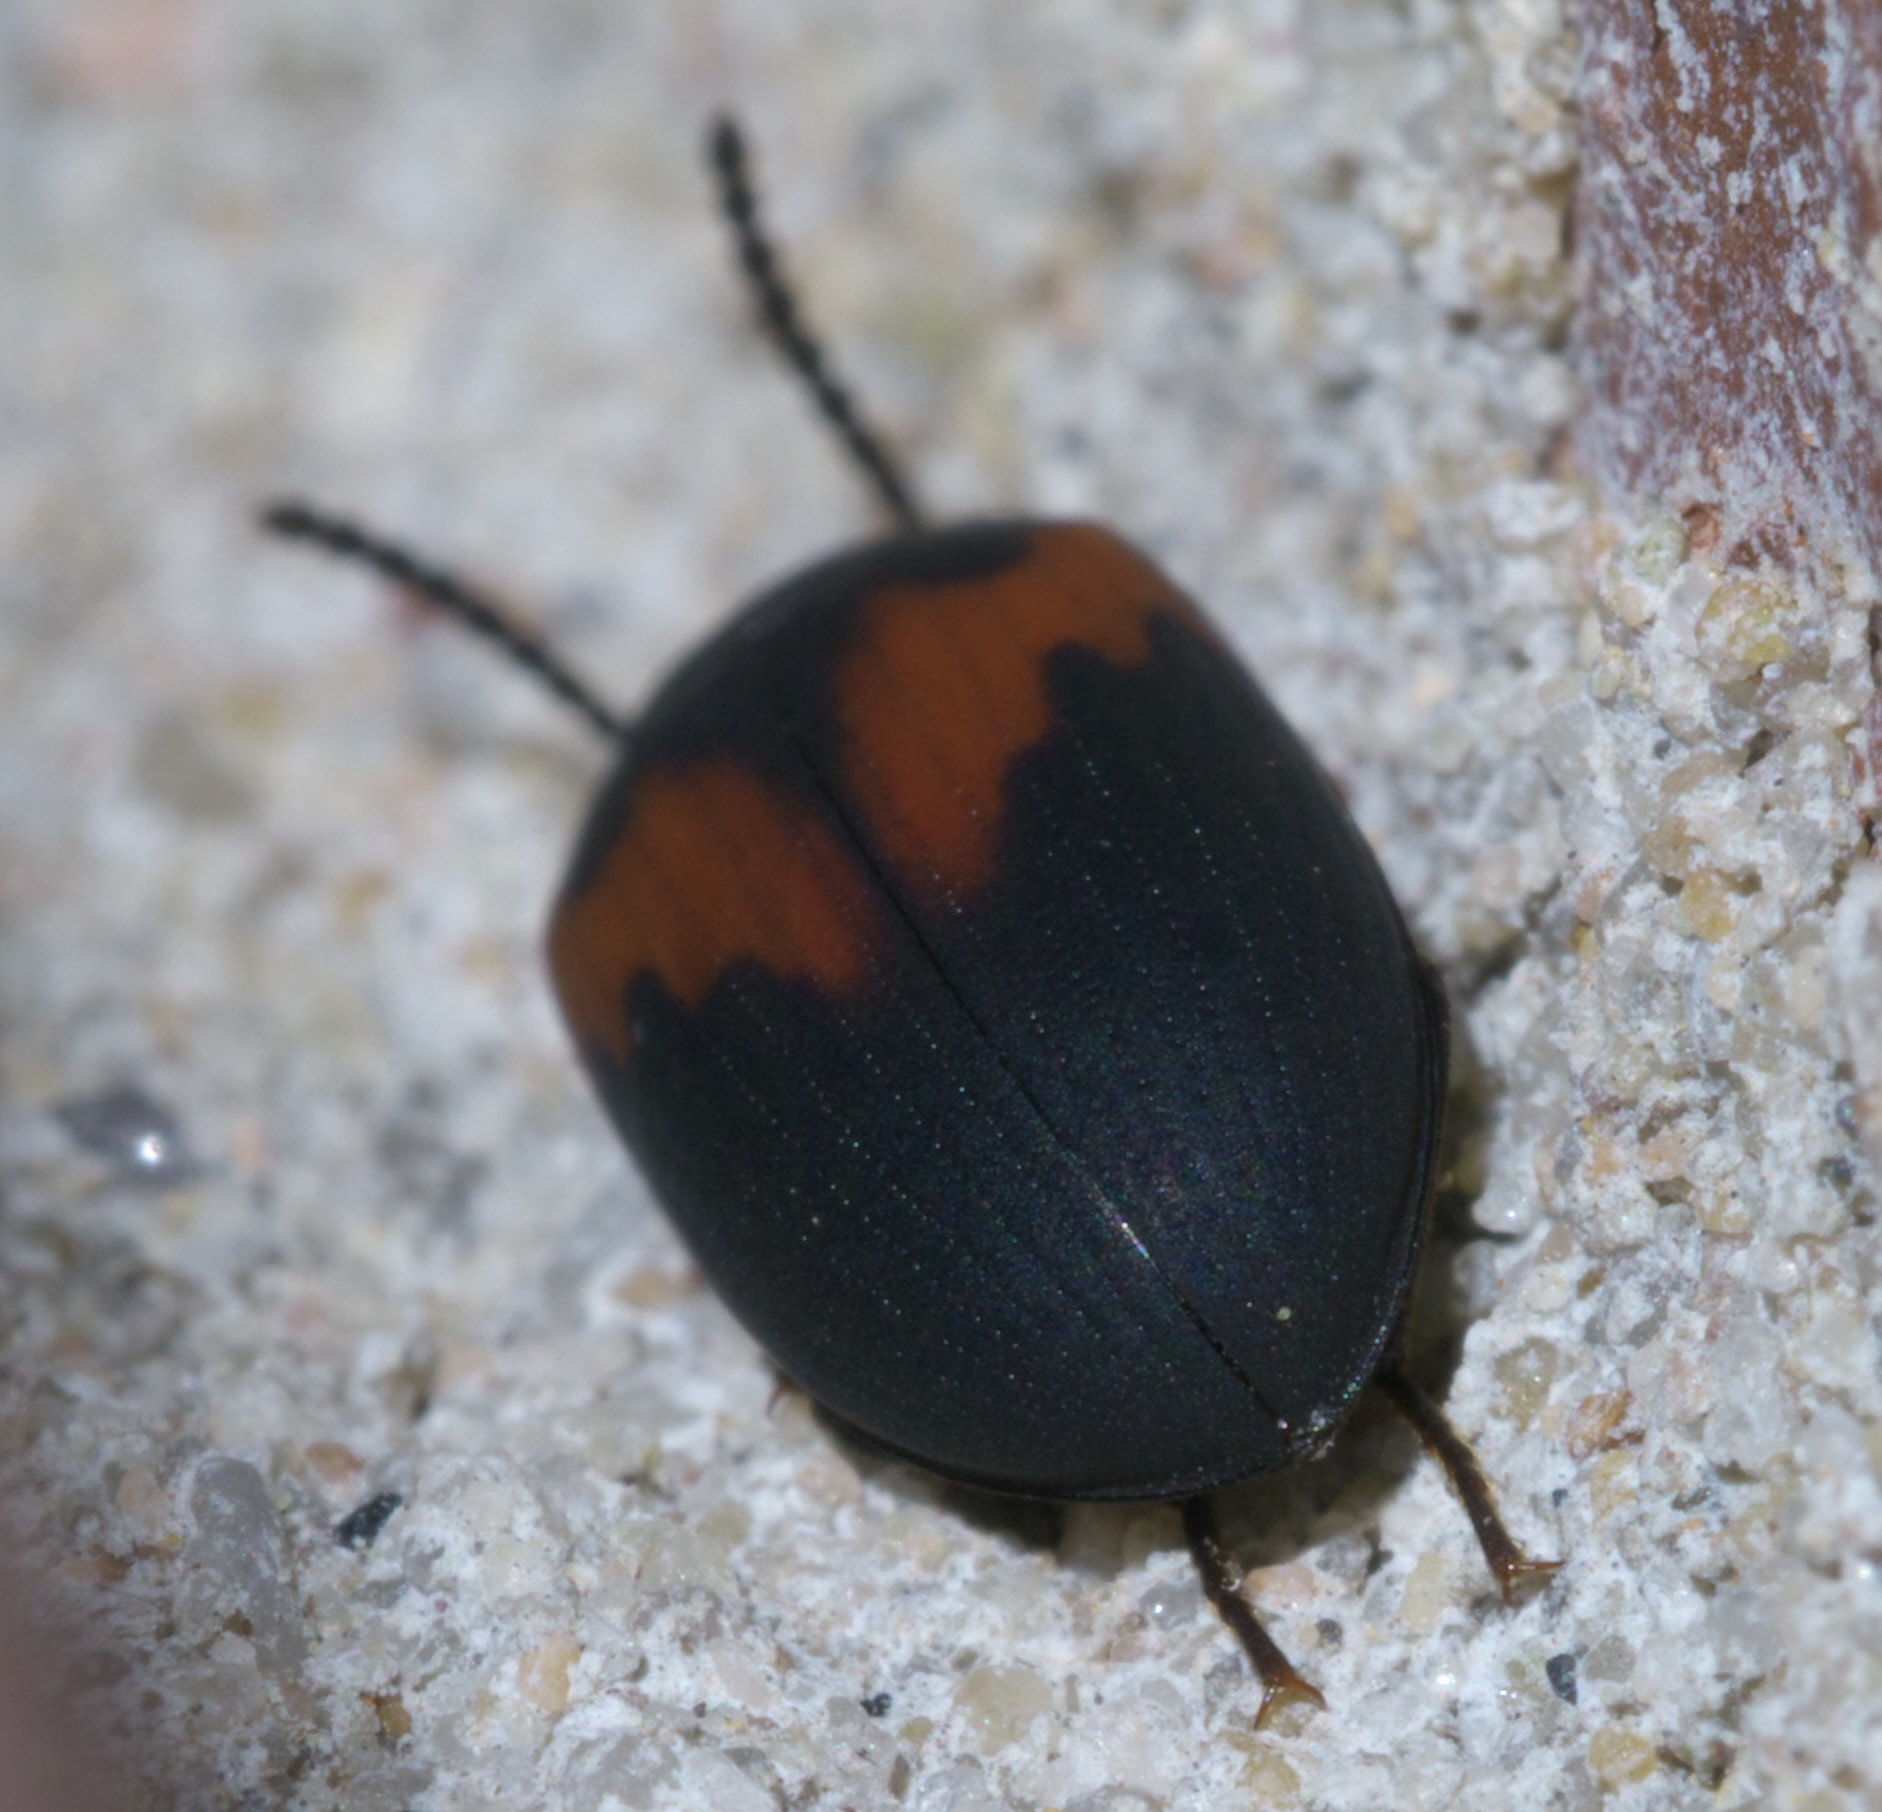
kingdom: Animalia
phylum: Arthropoda
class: Insecta
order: Coleoptera
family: Tenebrionidae
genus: Platydema
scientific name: Platydema elliptica
